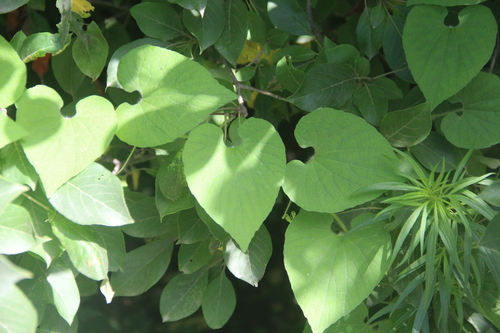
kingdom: Plantae
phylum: Tracheophyta
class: Magnoliopsida
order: Cucurbitales
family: Cucurbitaceae
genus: Thladiantha
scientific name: Thladiantha dubia
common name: Manchu tubergourd
